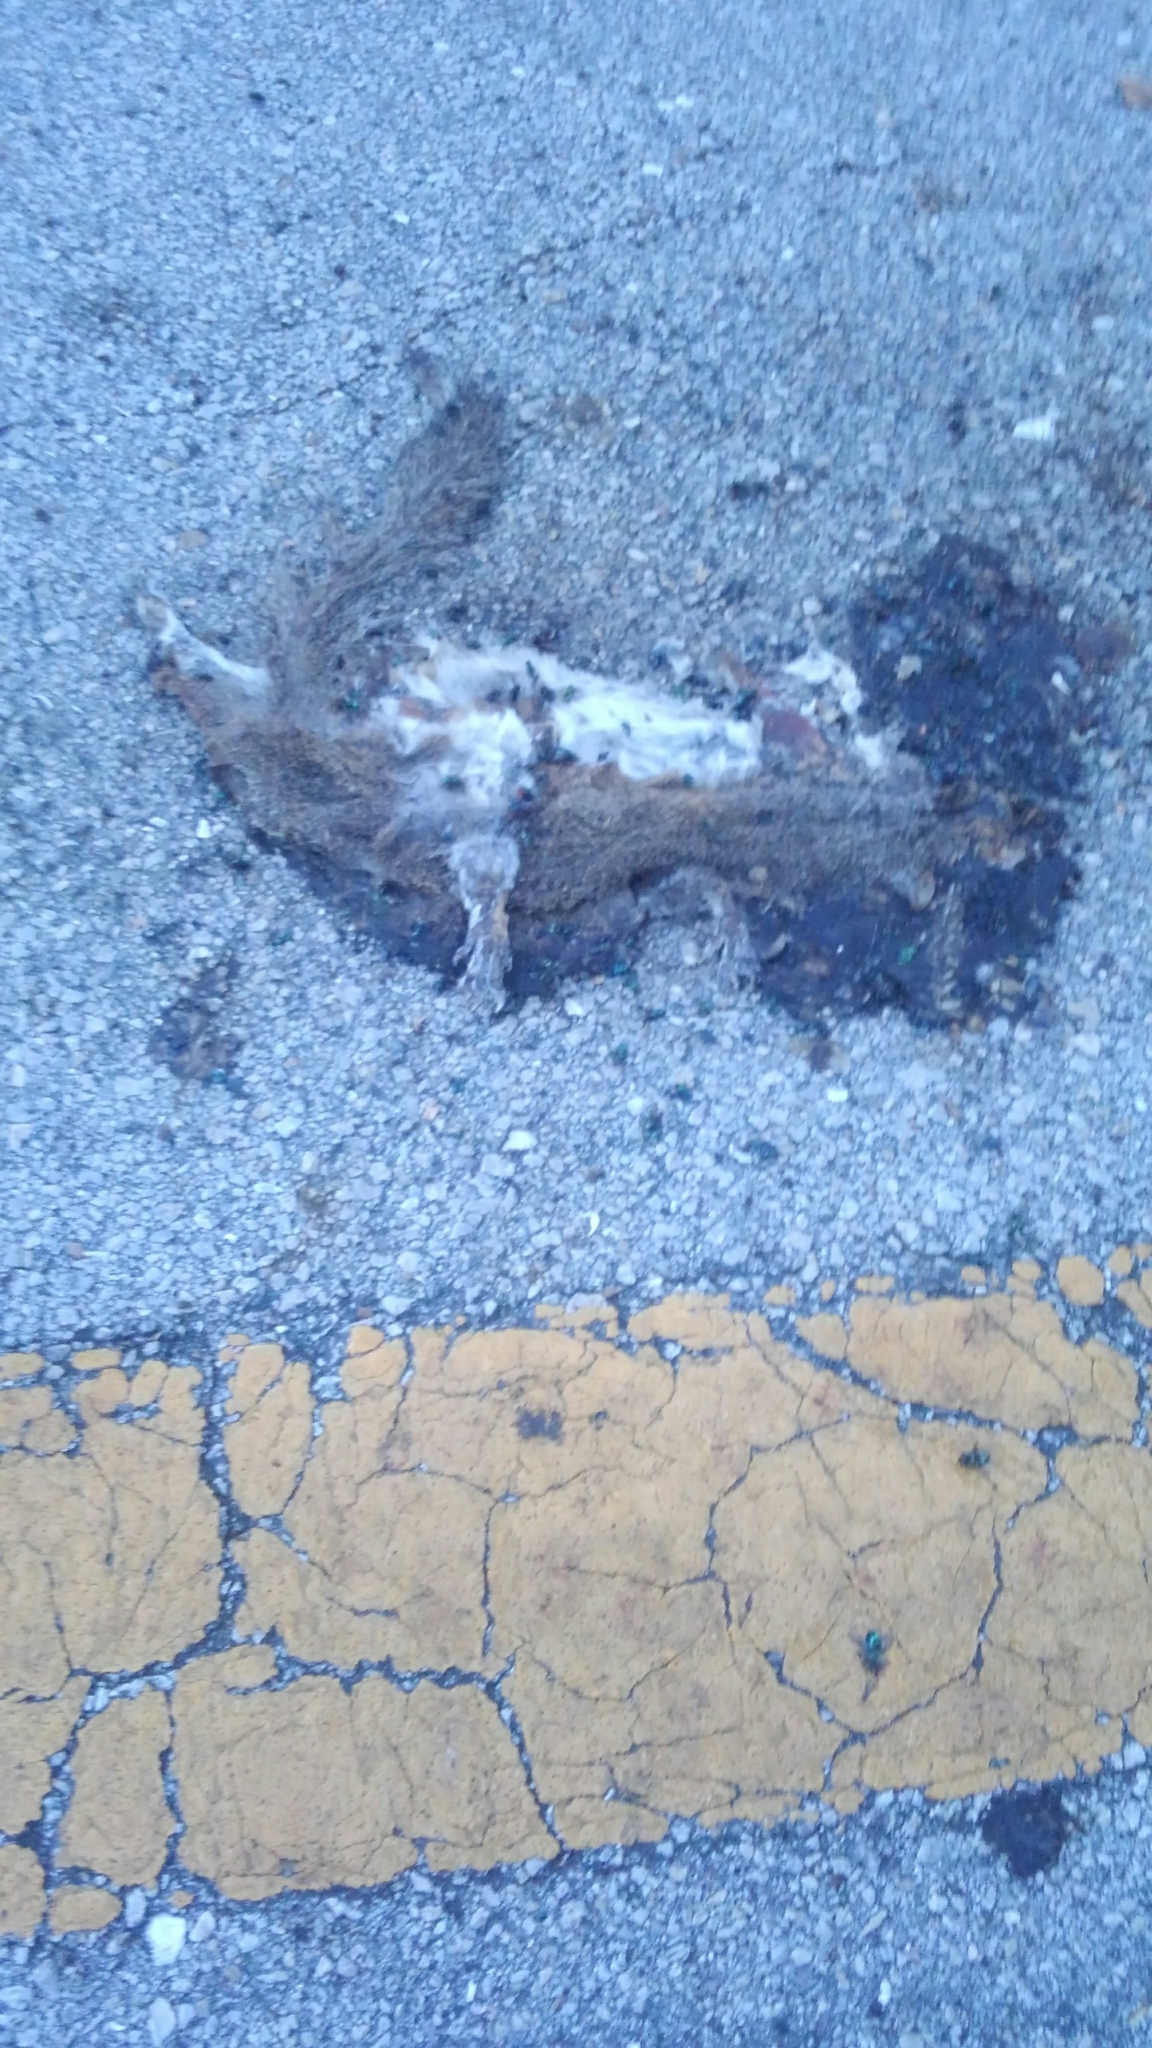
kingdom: Animalia
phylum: Chordata
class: Mammalia
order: Rodentia
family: Sciuridae
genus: Sciurus
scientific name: Sciurus carolinensis
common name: Eastern gray squirrel
